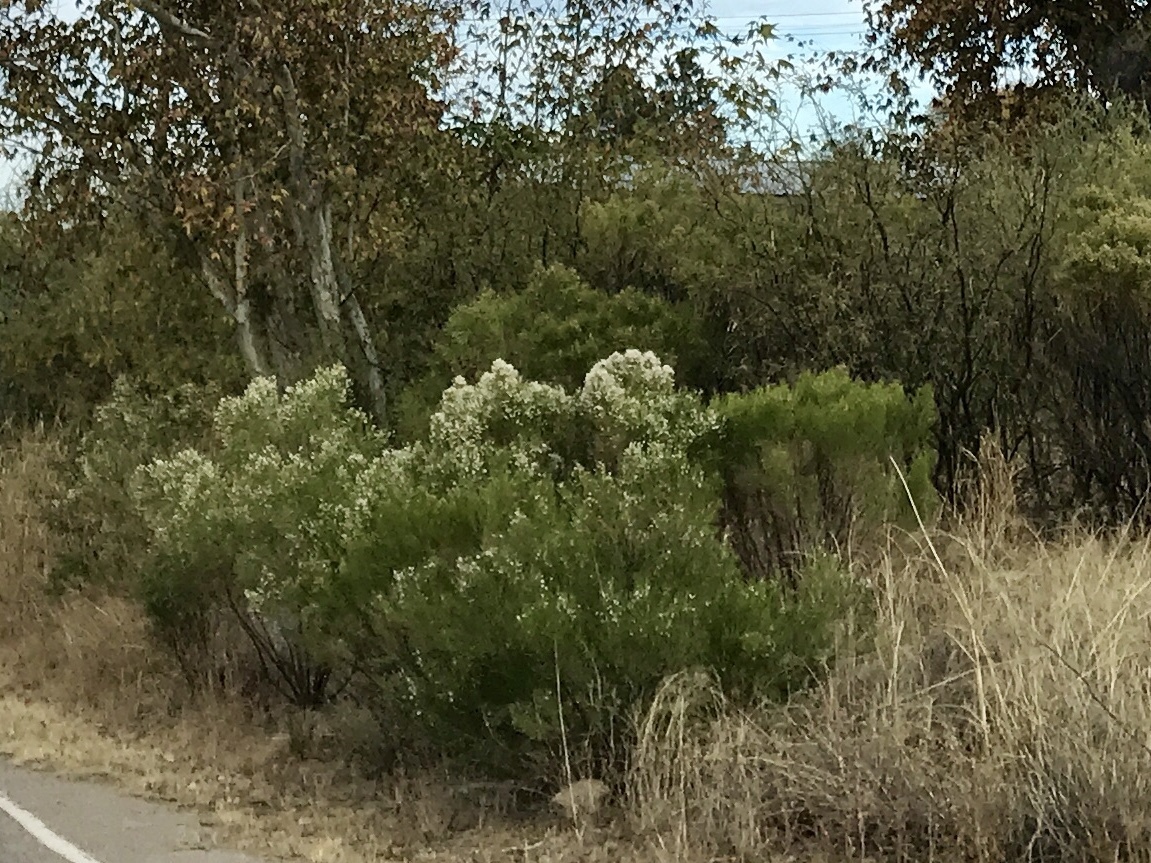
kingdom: Plantae
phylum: Tracheophyta
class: Magnoliopsida
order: Asterales
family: Asteraceae
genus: Baccharis
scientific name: Baccharis sarothroides
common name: Desert-broom
